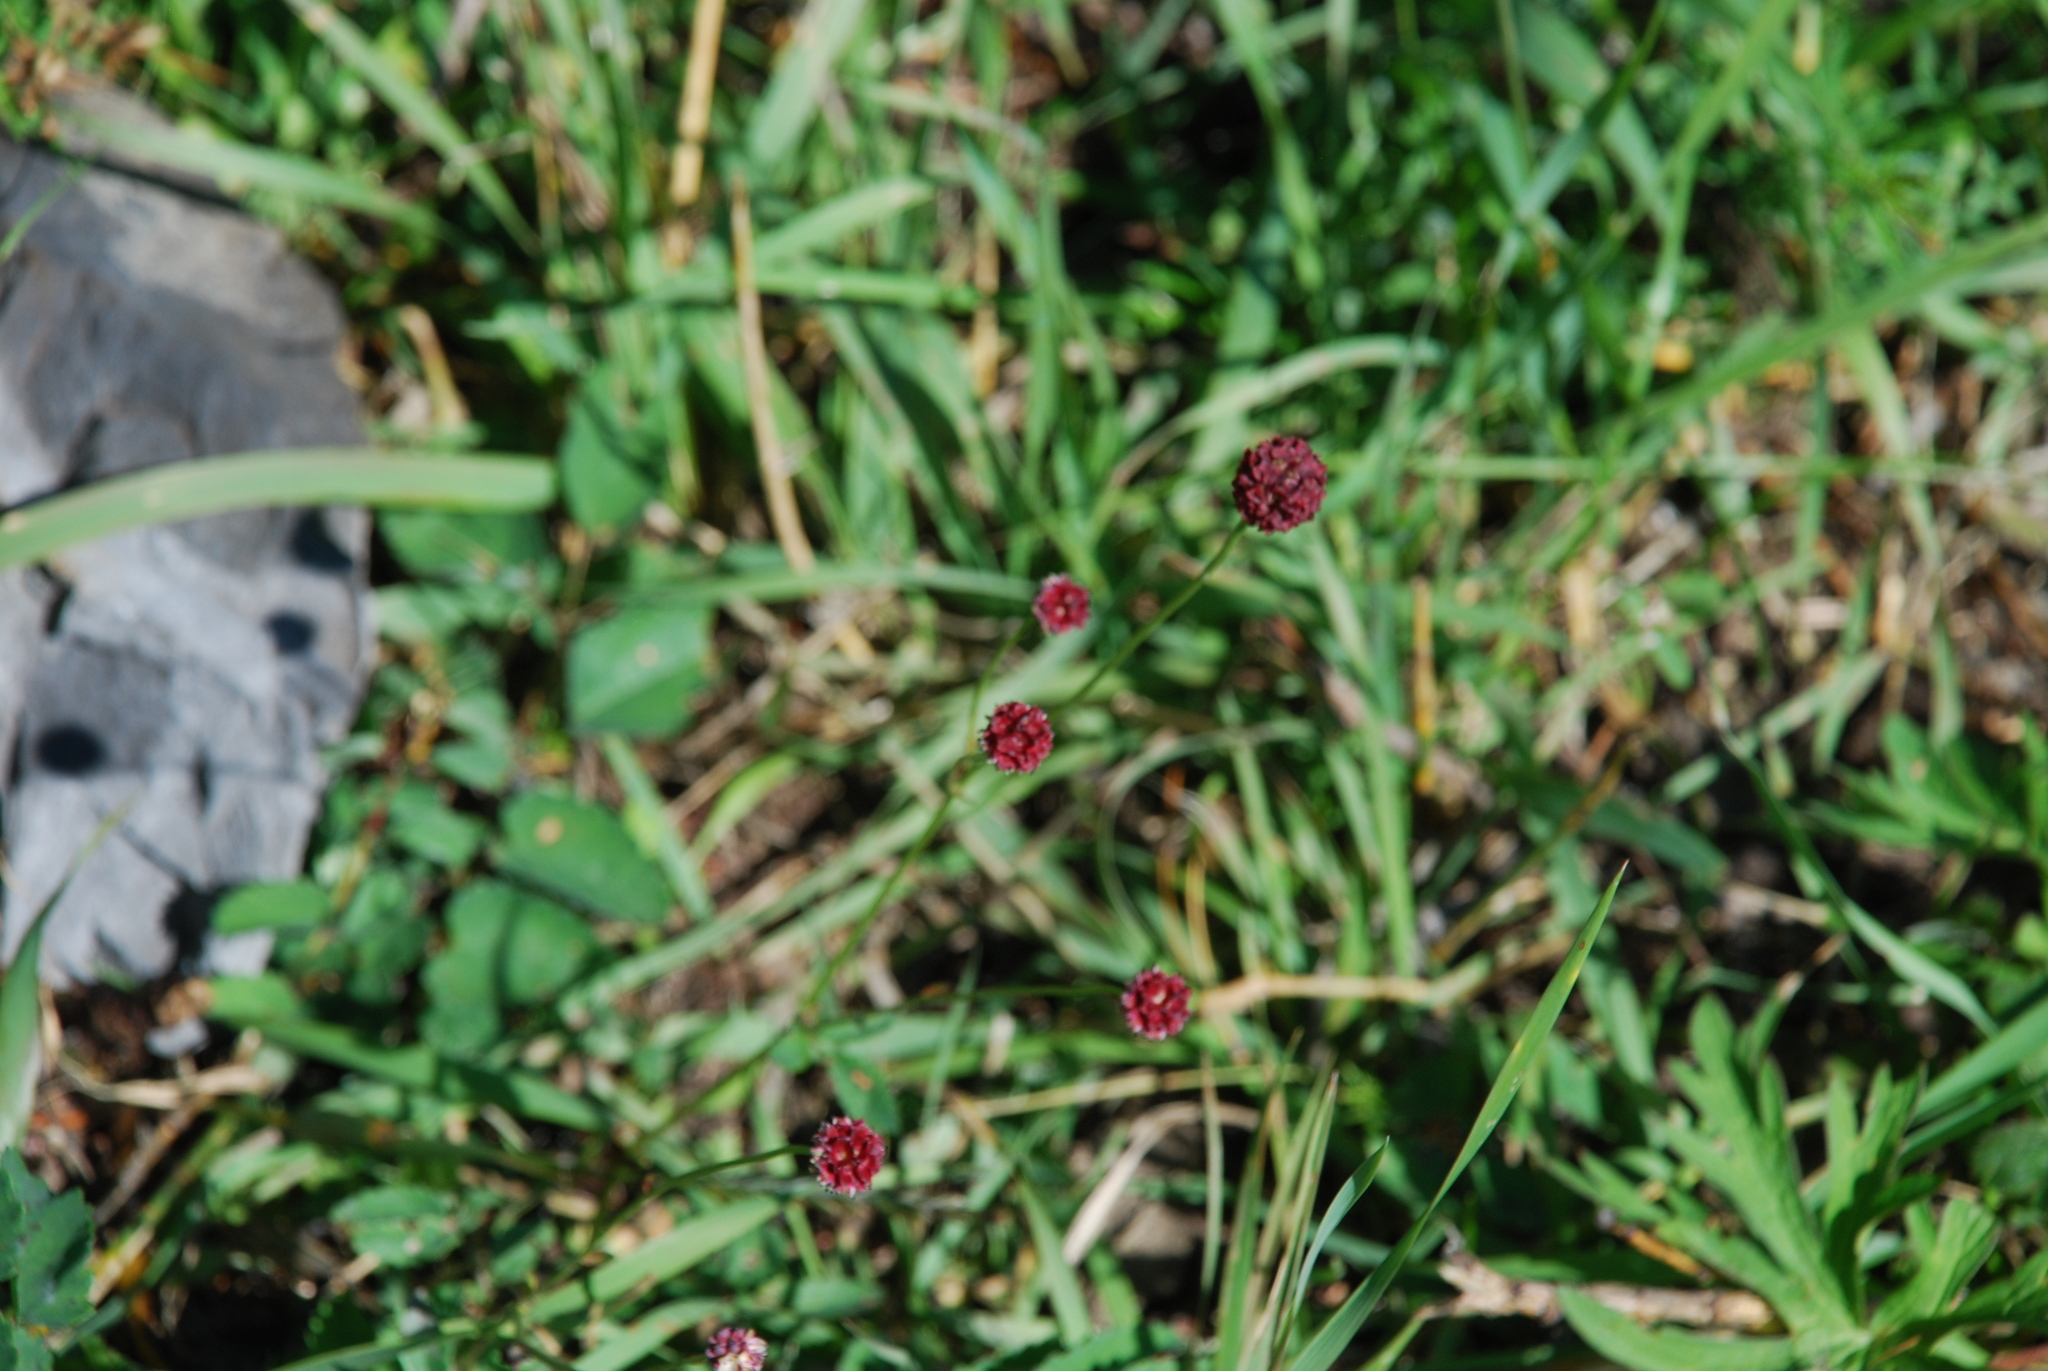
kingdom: Plantae
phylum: Tracheophyta
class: Magnoliopsida
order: Rosales
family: Rosaceae
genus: Sanguisorba
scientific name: Sanguisorba officinalis
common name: Great burnet
